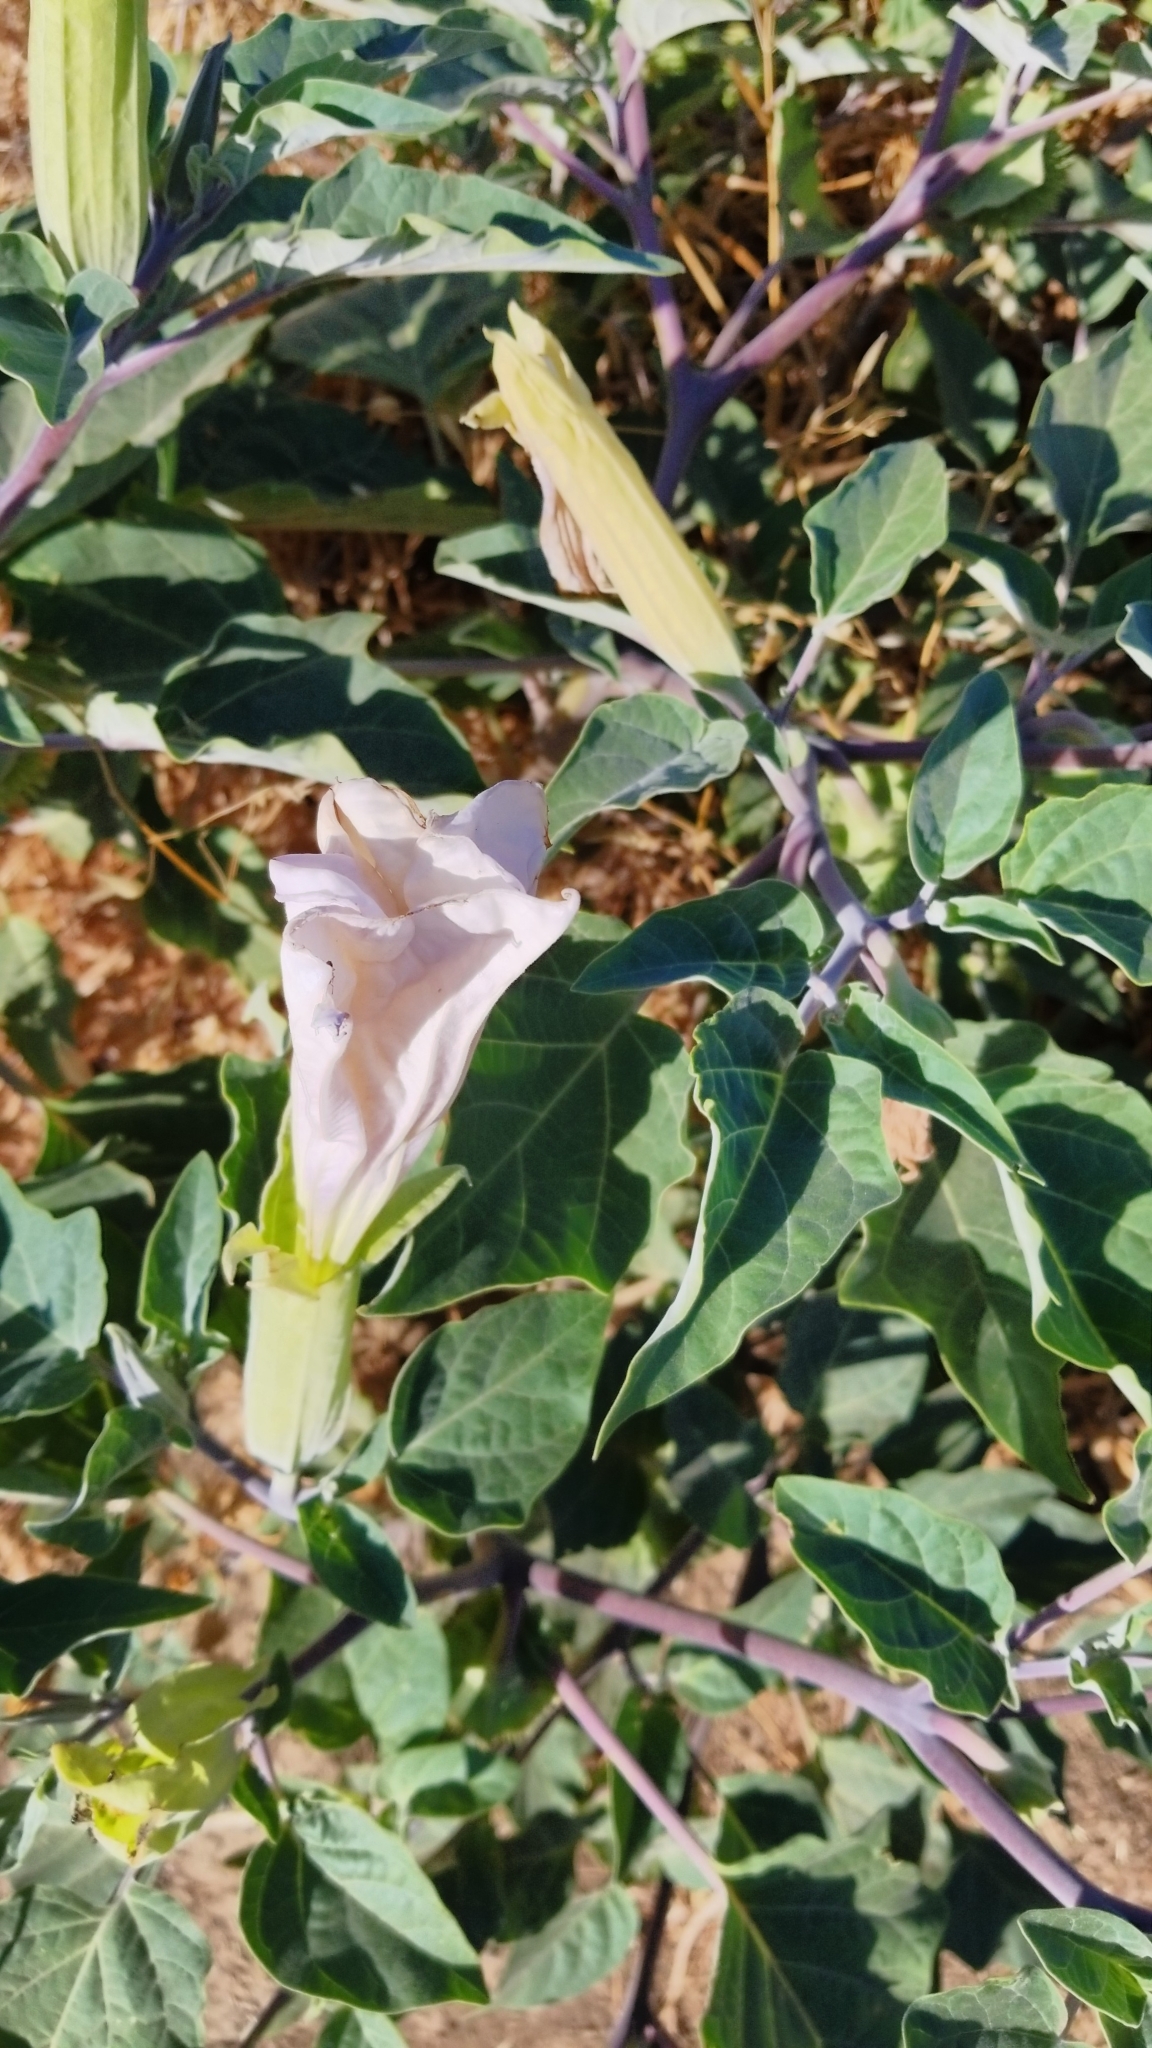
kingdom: Plantae
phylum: Tracheophyta
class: Magnoliopsida
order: Solanales
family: Solanaceae
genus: Datura
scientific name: Datura wrightii
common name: Sacred thorn-apple
